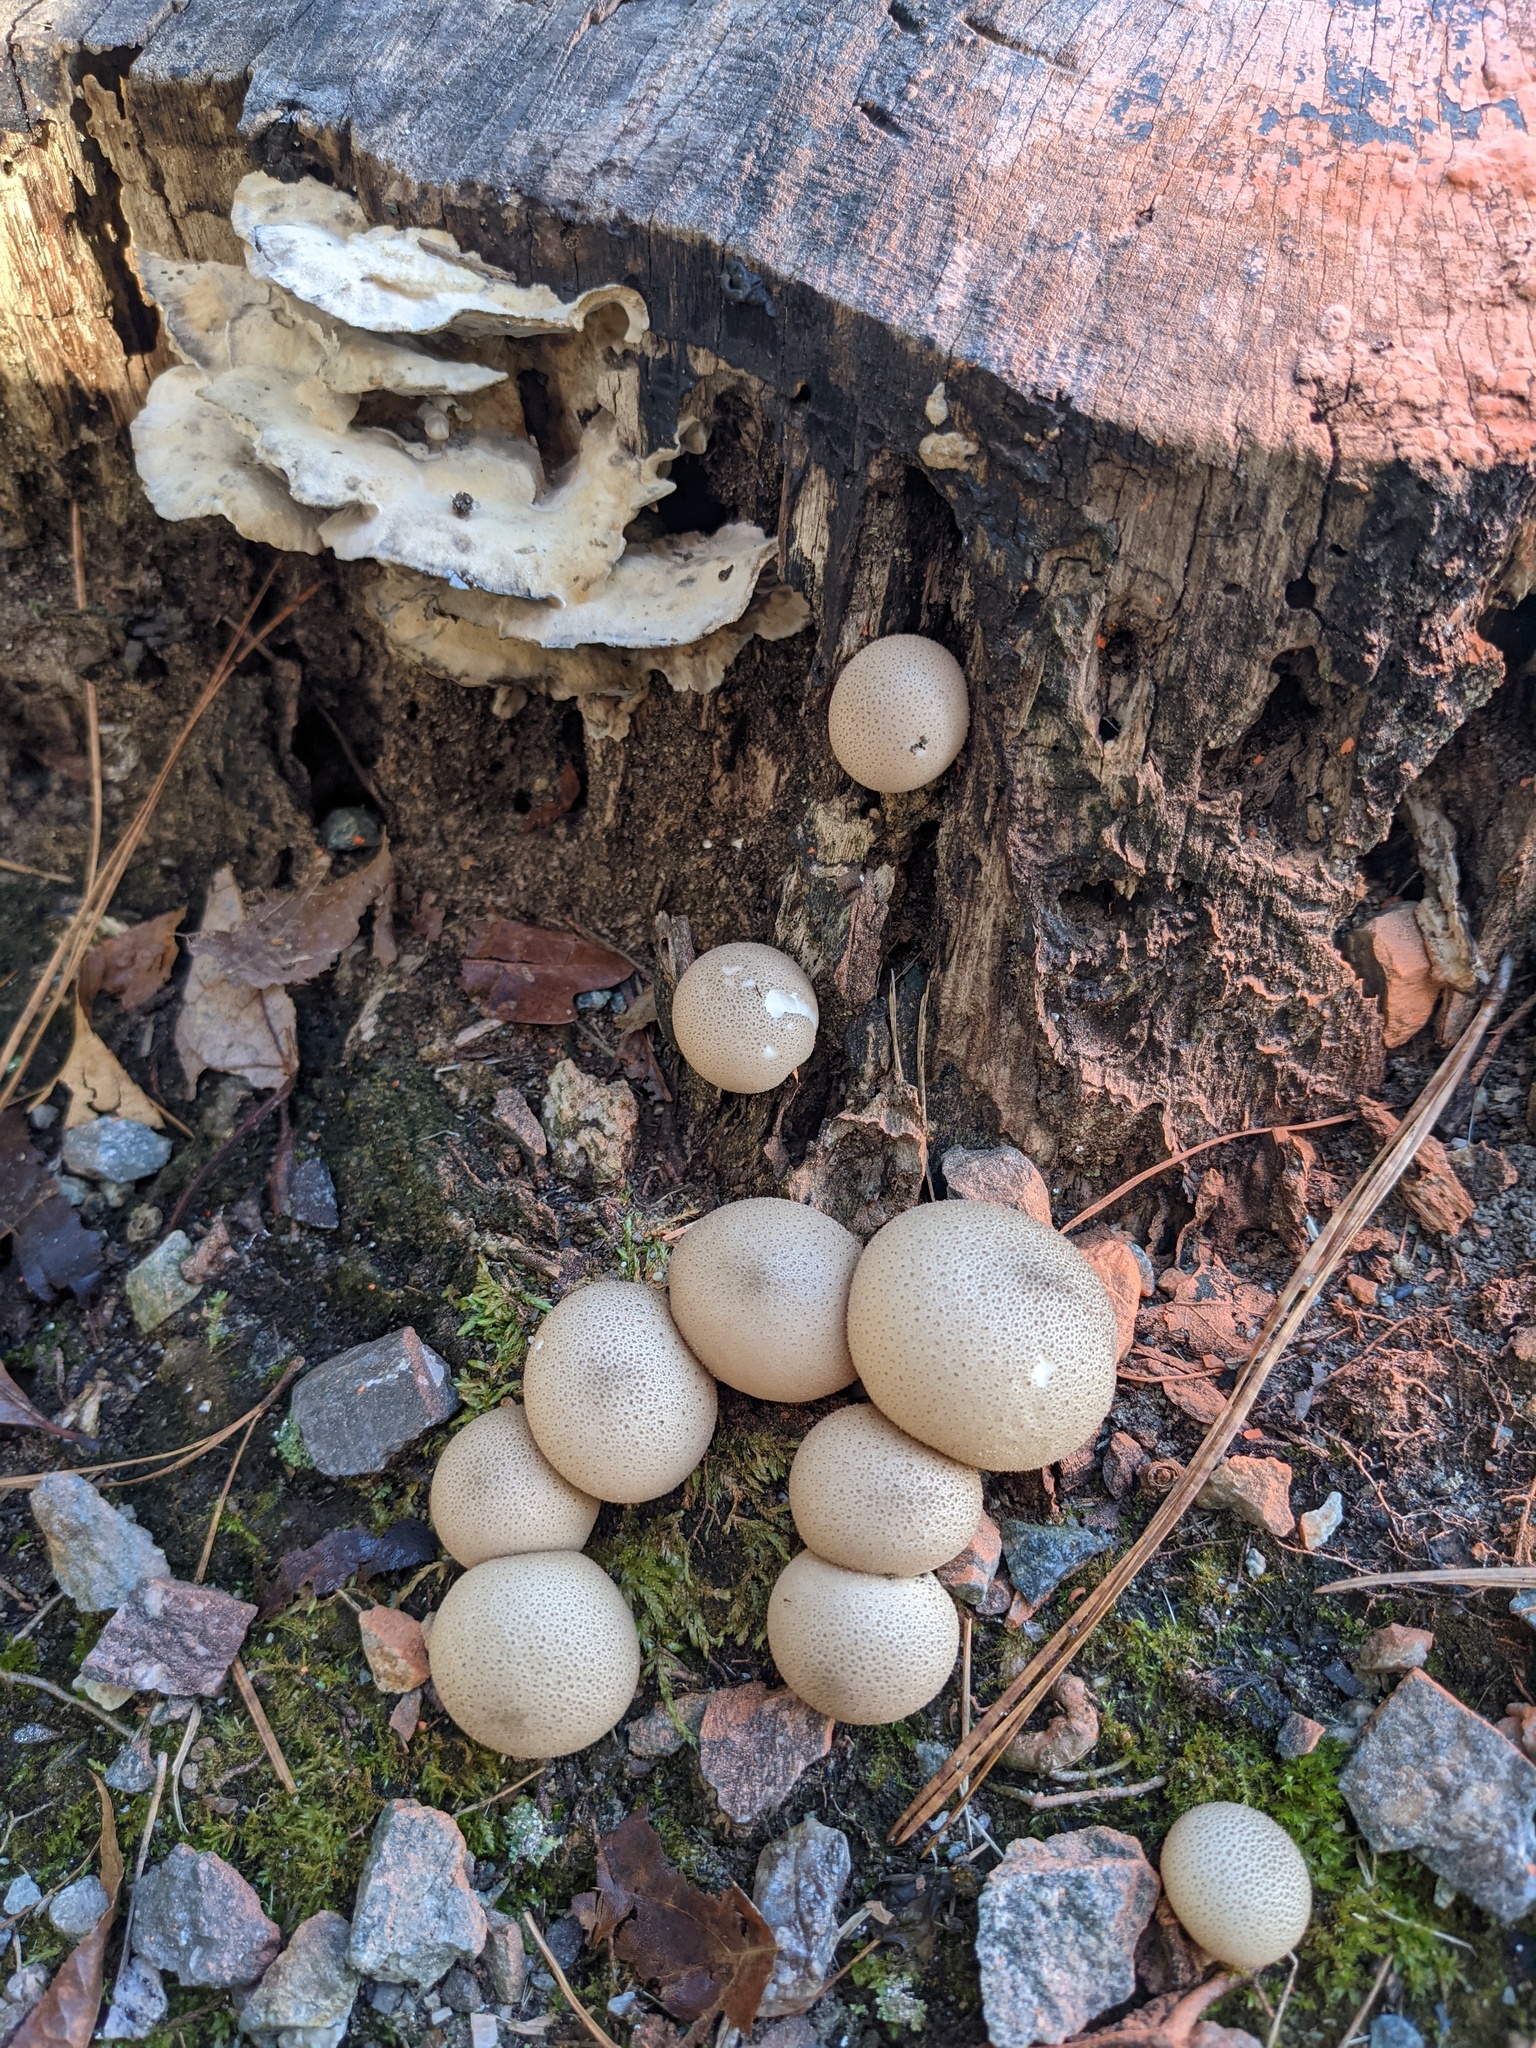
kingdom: Fungi
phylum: Basidiomycota
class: Agaricomycetes
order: Agaricales
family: Lycoperdaceae
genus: Apioperdon
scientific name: Apioperdon pyriforme
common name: Pear-shaped puffball
